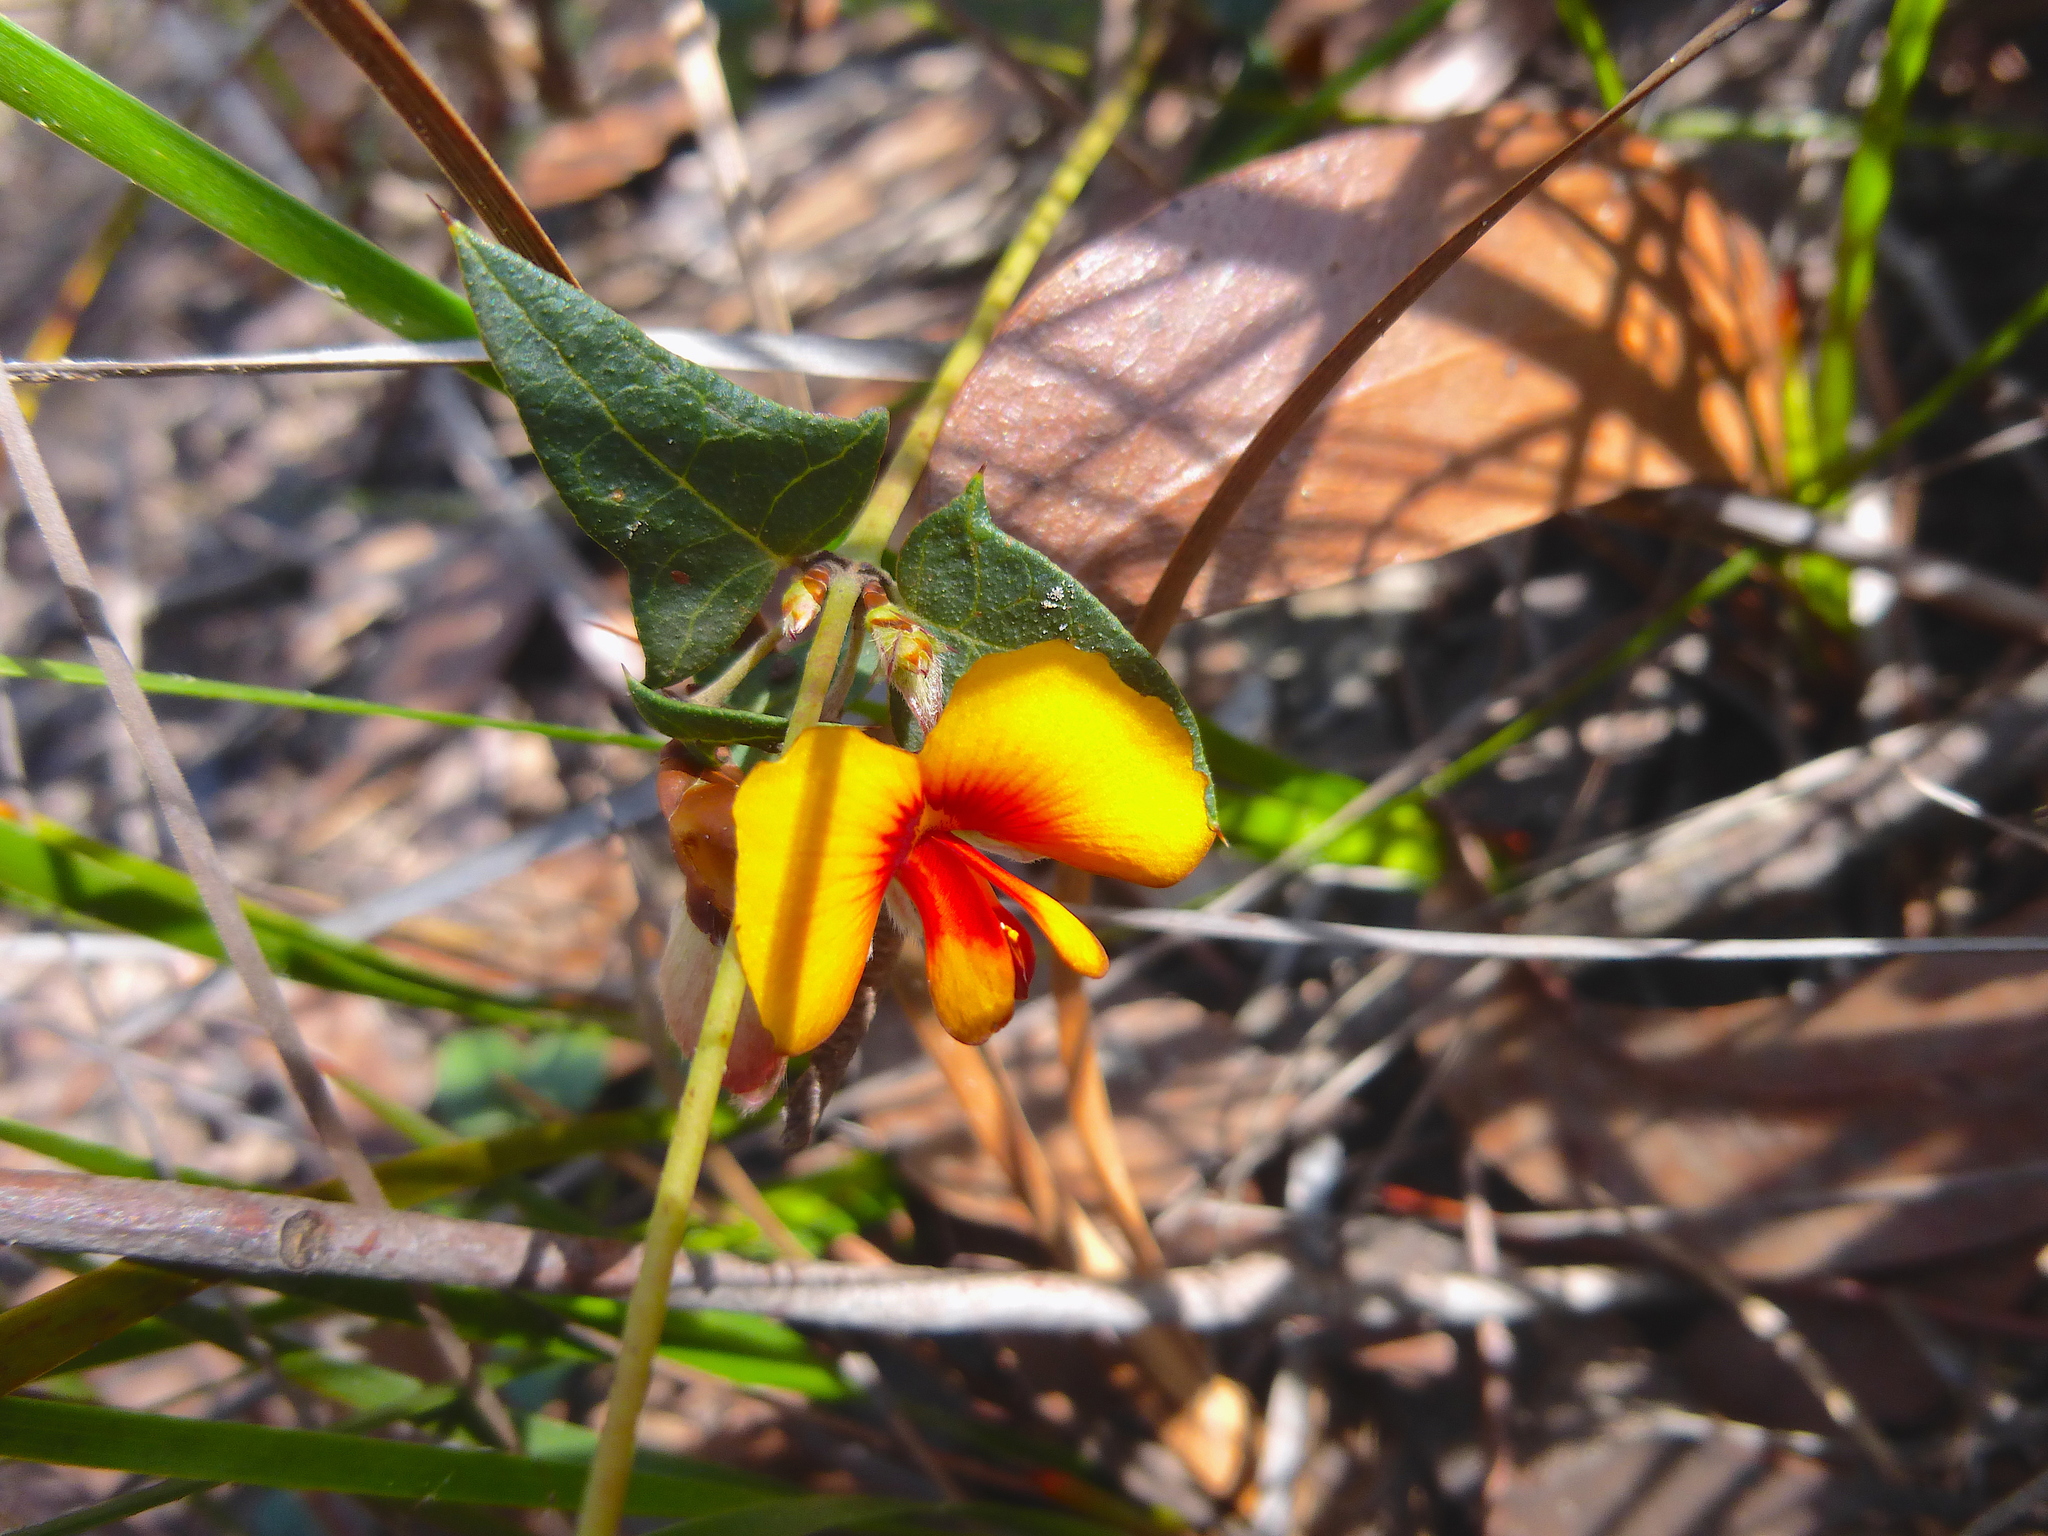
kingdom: Plantae
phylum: Tracheophyta
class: Magnoliopsida
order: Fabales
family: Fabaceae
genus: Platylobium
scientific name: Platylobium obtusangulum
